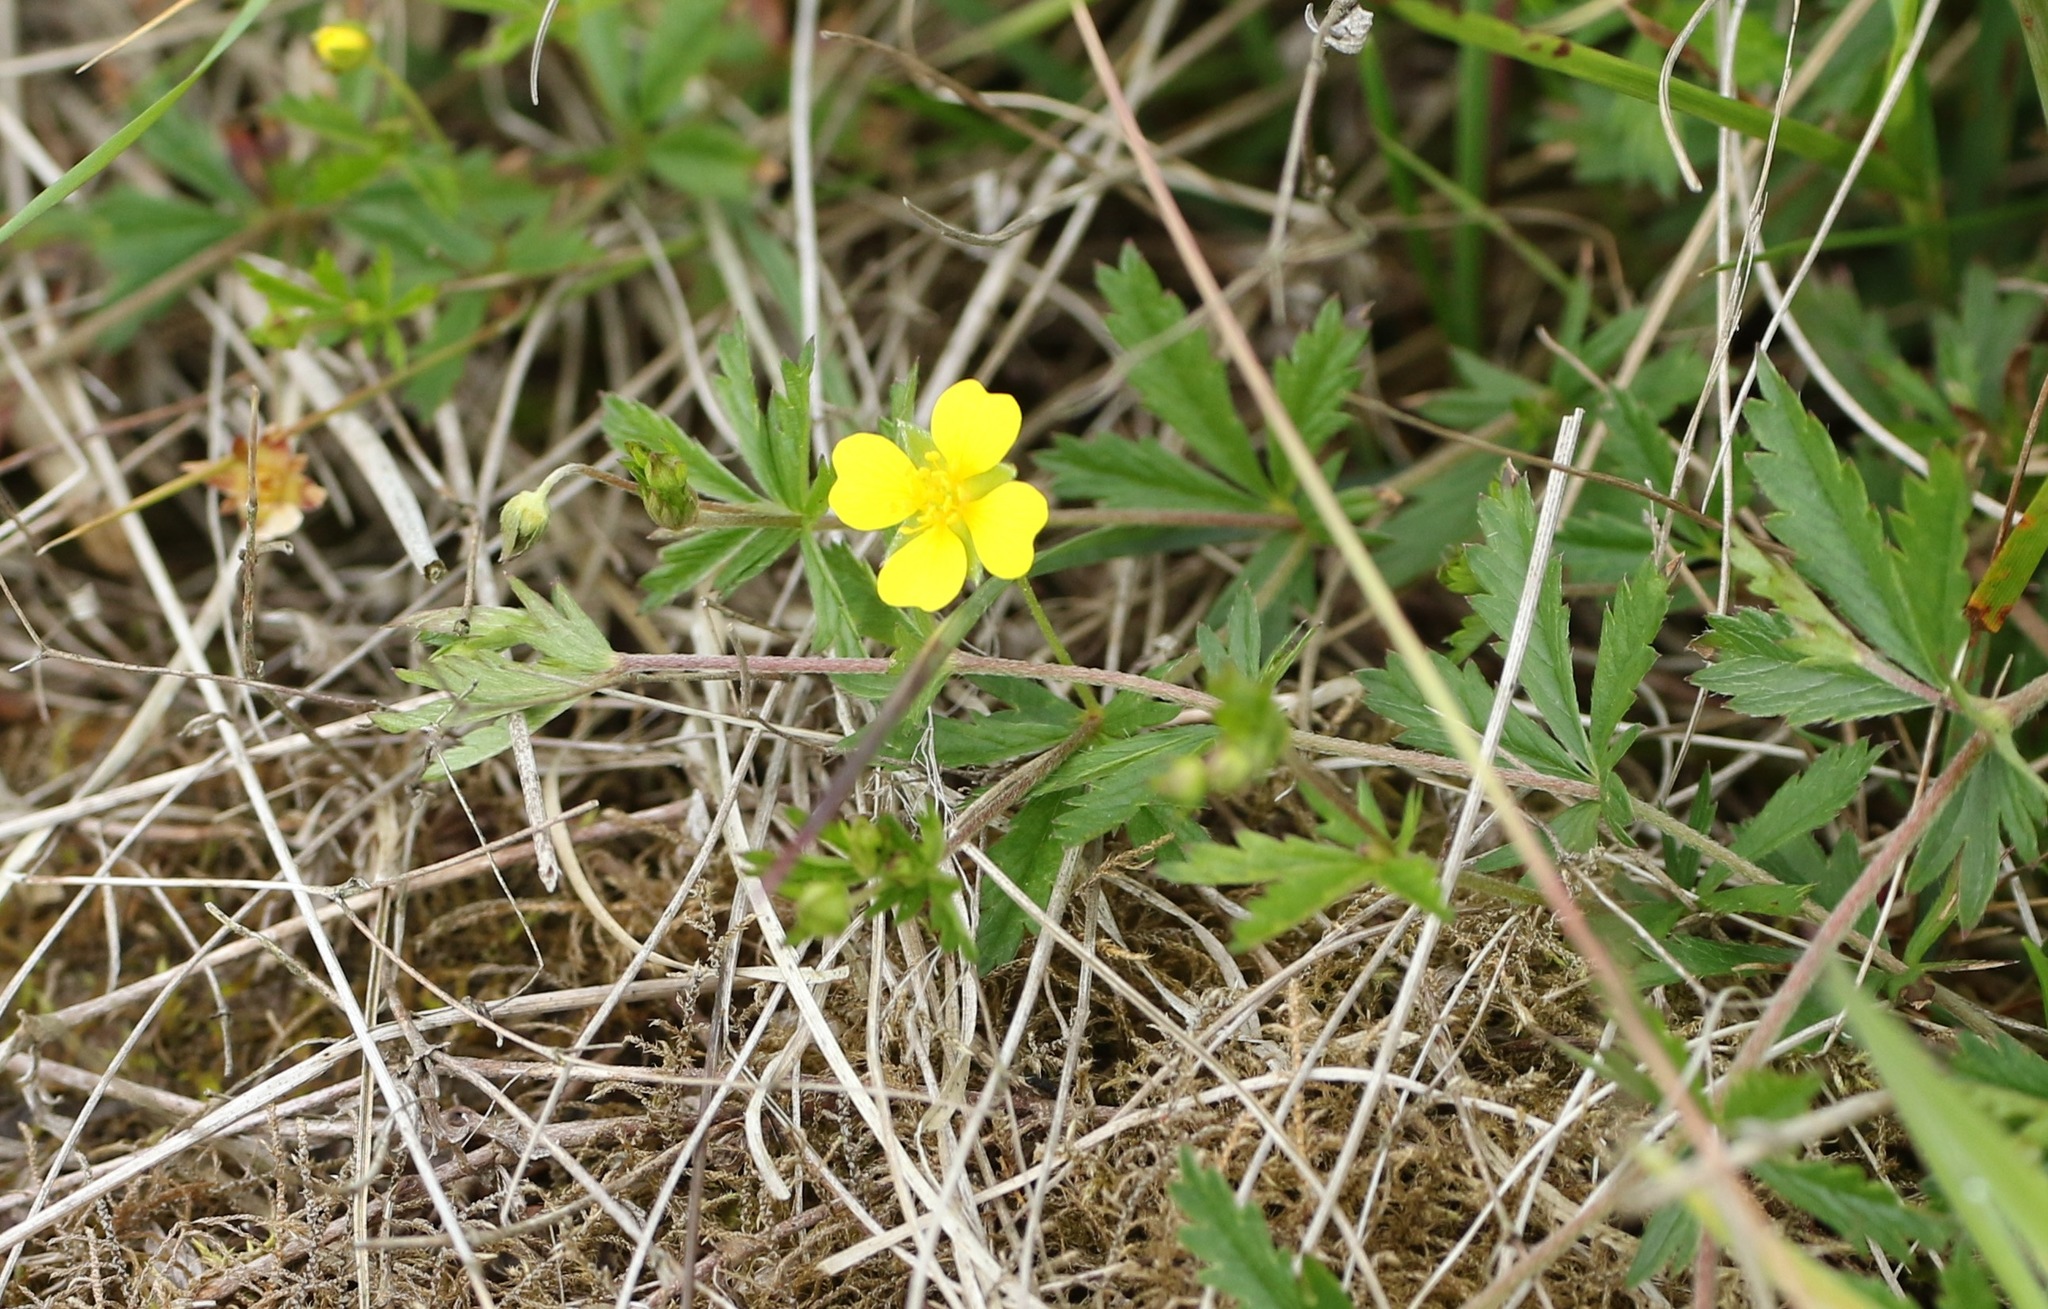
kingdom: Plantae
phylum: Tracheophyta
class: Magnoliopsida
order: Rosales
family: Rosaceae
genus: Potentilla
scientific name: Potentilla erecta
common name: Tormentil
